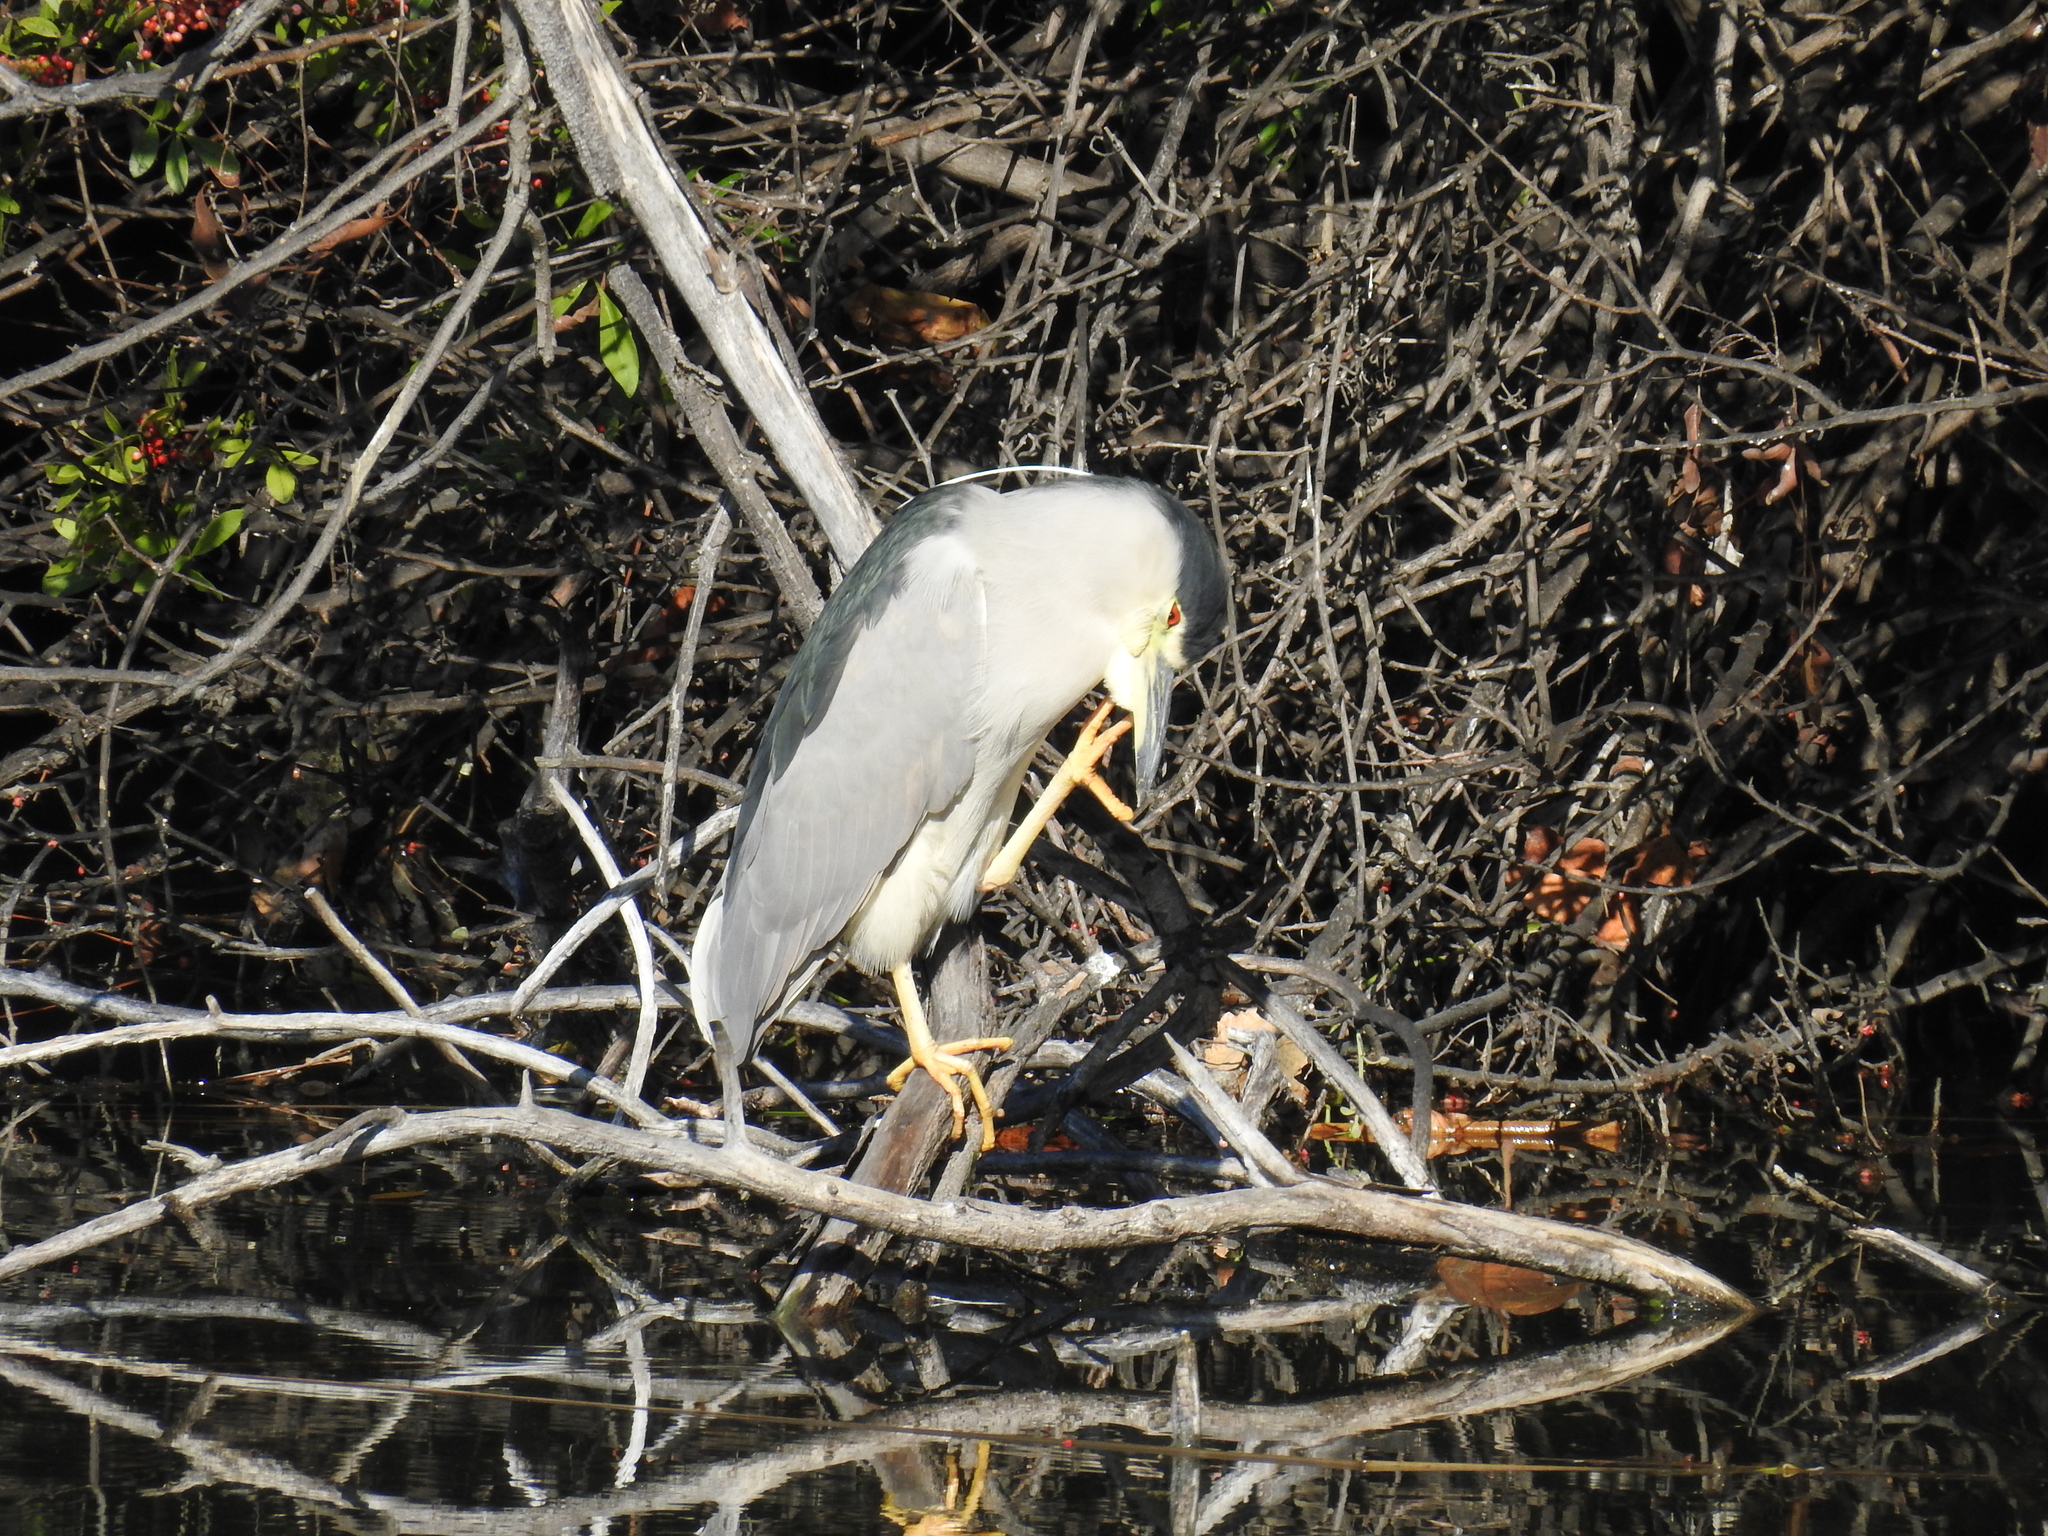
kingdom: Animalia
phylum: Chordata
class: Aves
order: Pelecaniformes
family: Ardeidae
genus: Nycticorax
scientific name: Nycticorax nycticorax
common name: Black-crowned night heron
